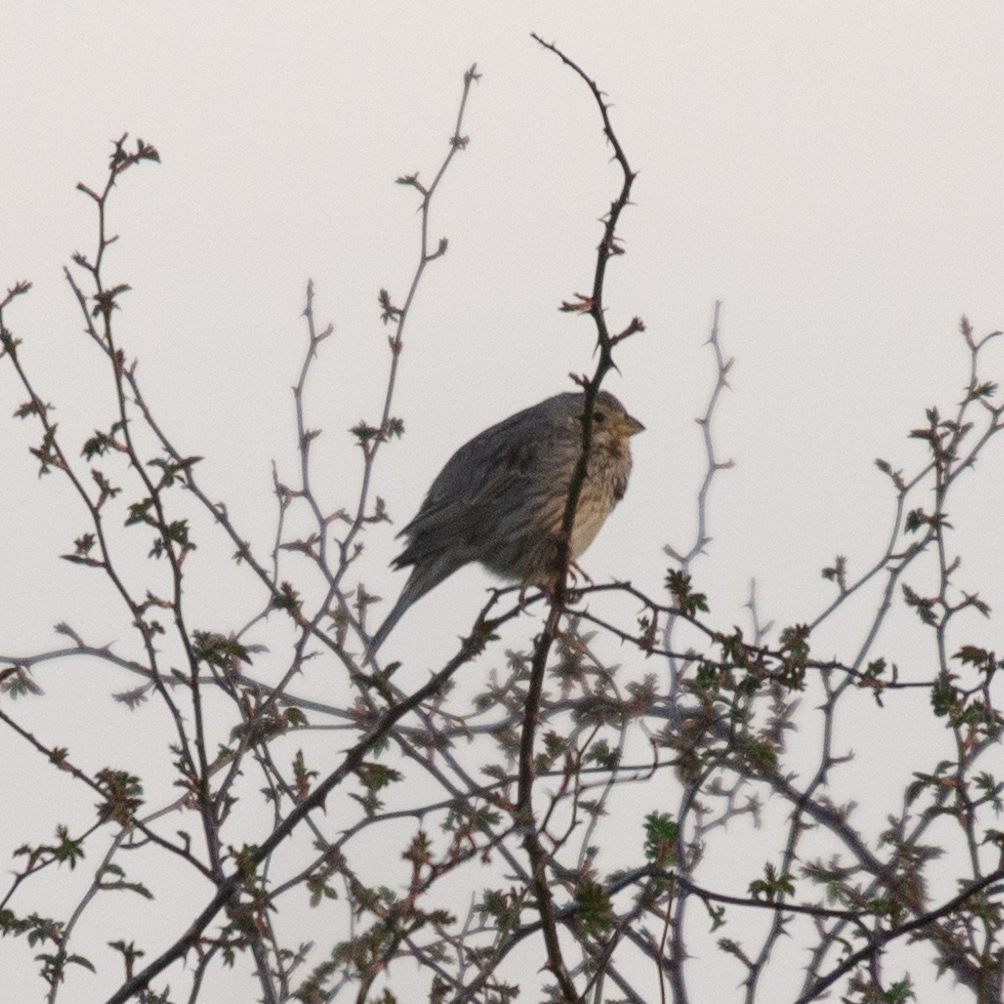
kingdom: Animalia
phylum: Chordata
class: Aves
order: Passeriformes
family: Emberizidae
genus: Emberiza
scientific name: Emberiza calandra
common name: Corn bunting
